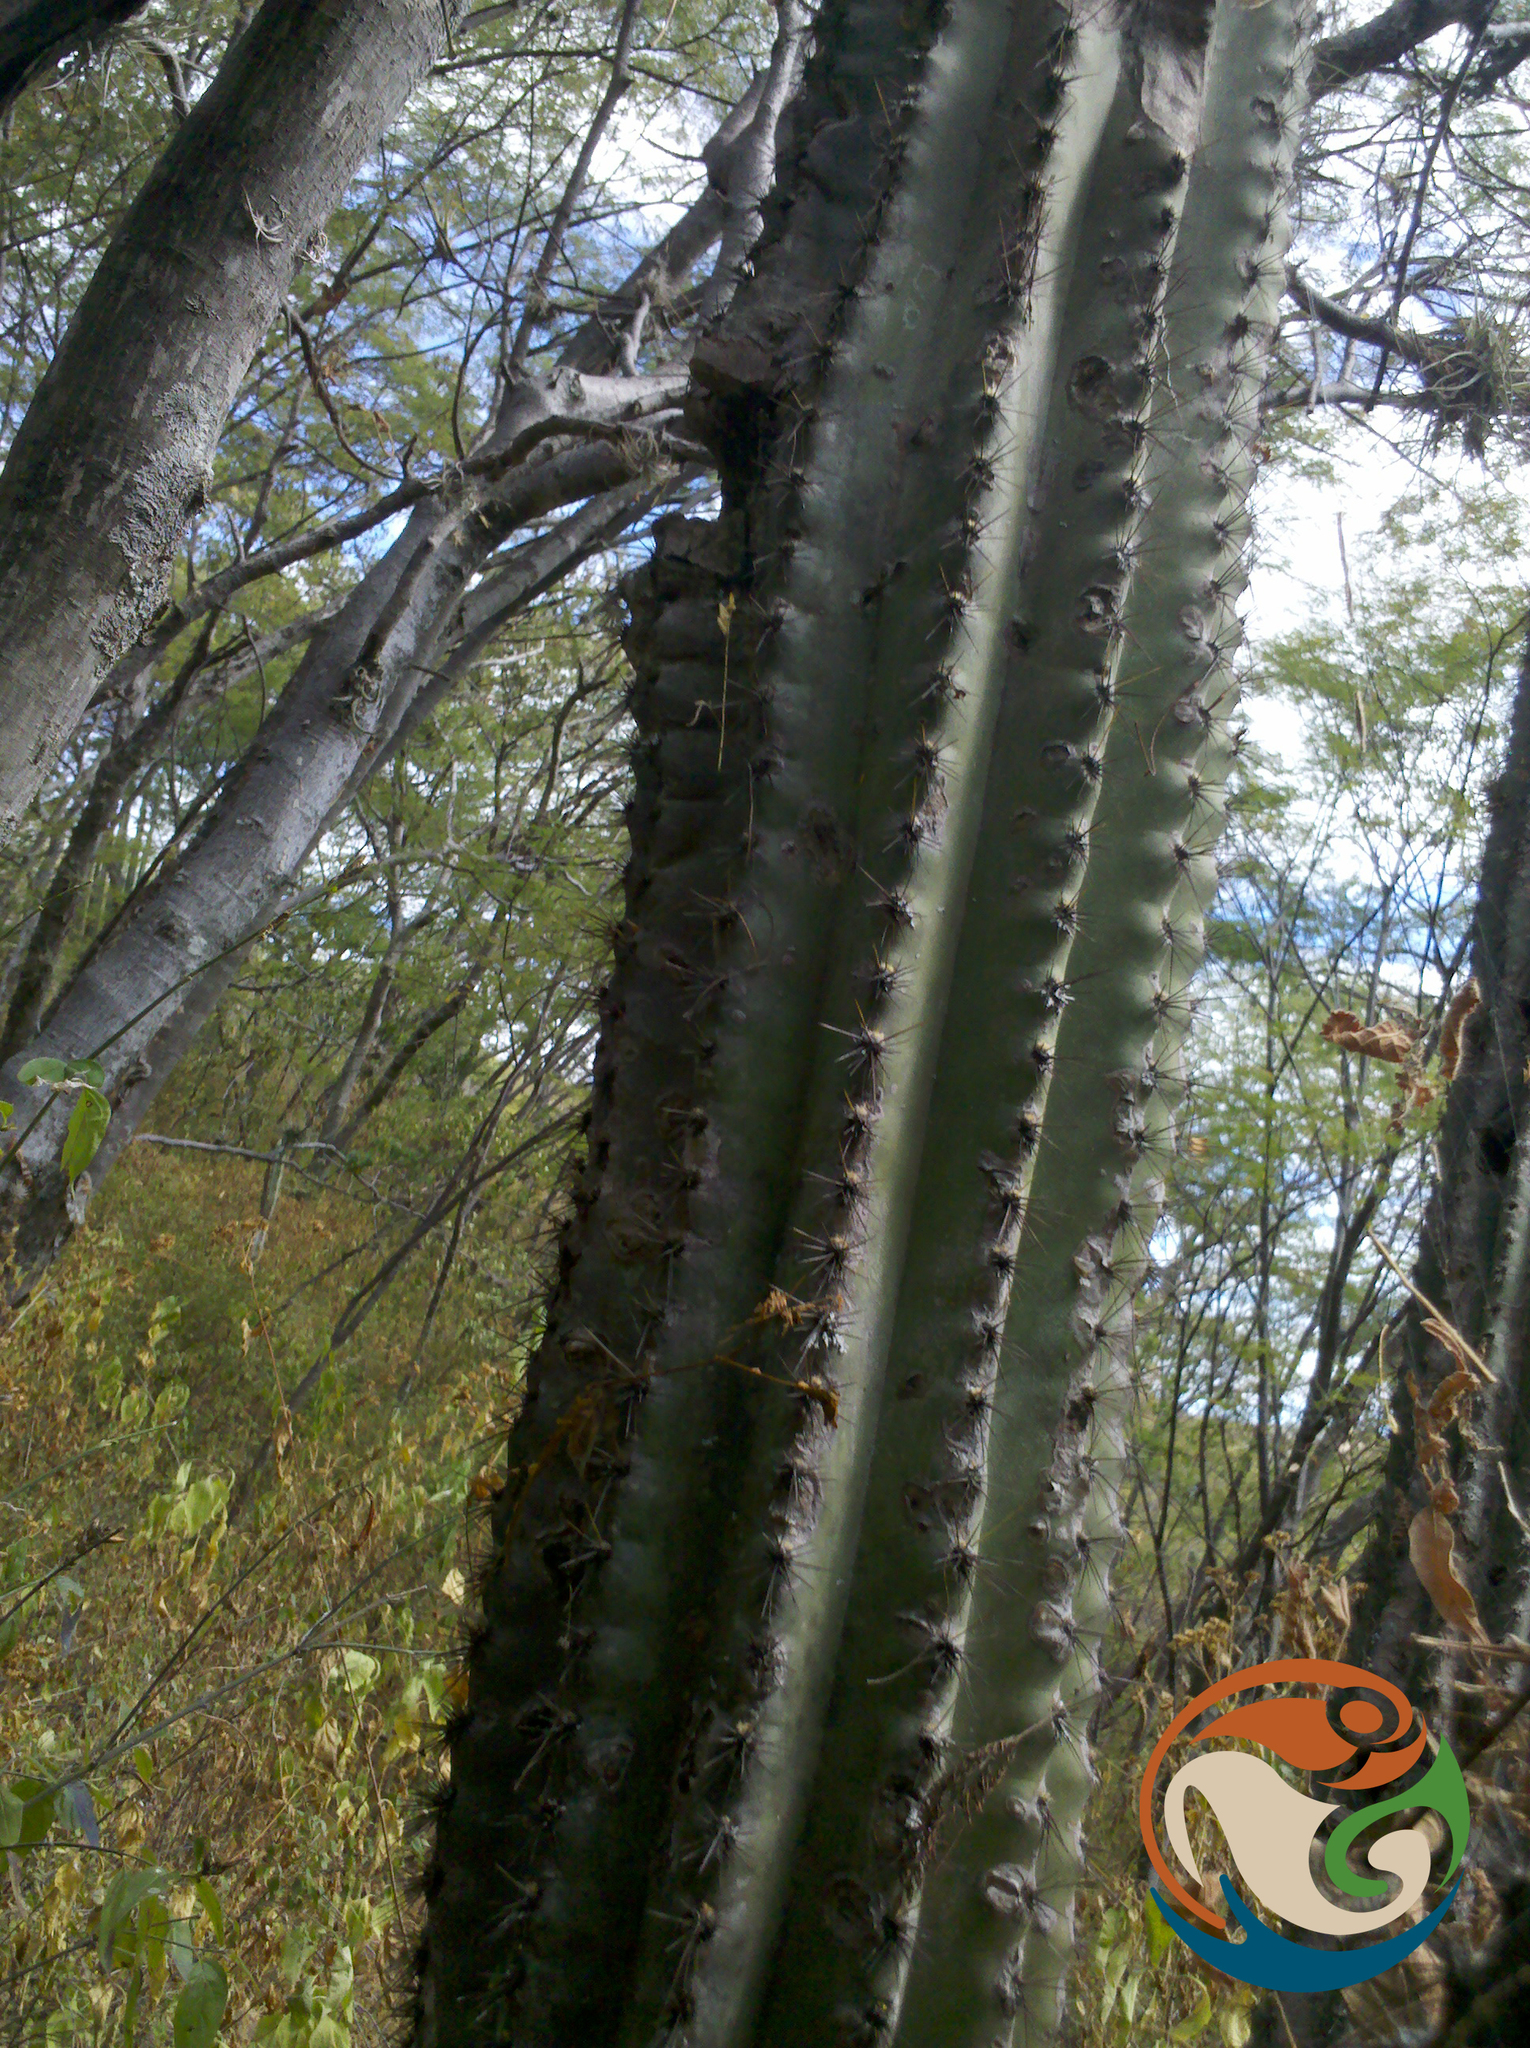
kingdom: Plantae
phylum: Tracheophyta
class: Magnoliopsida
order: Caryophyllales
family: Cactaceae
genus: Pilosocereus
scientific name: Pilosocereus chrysacanthus
